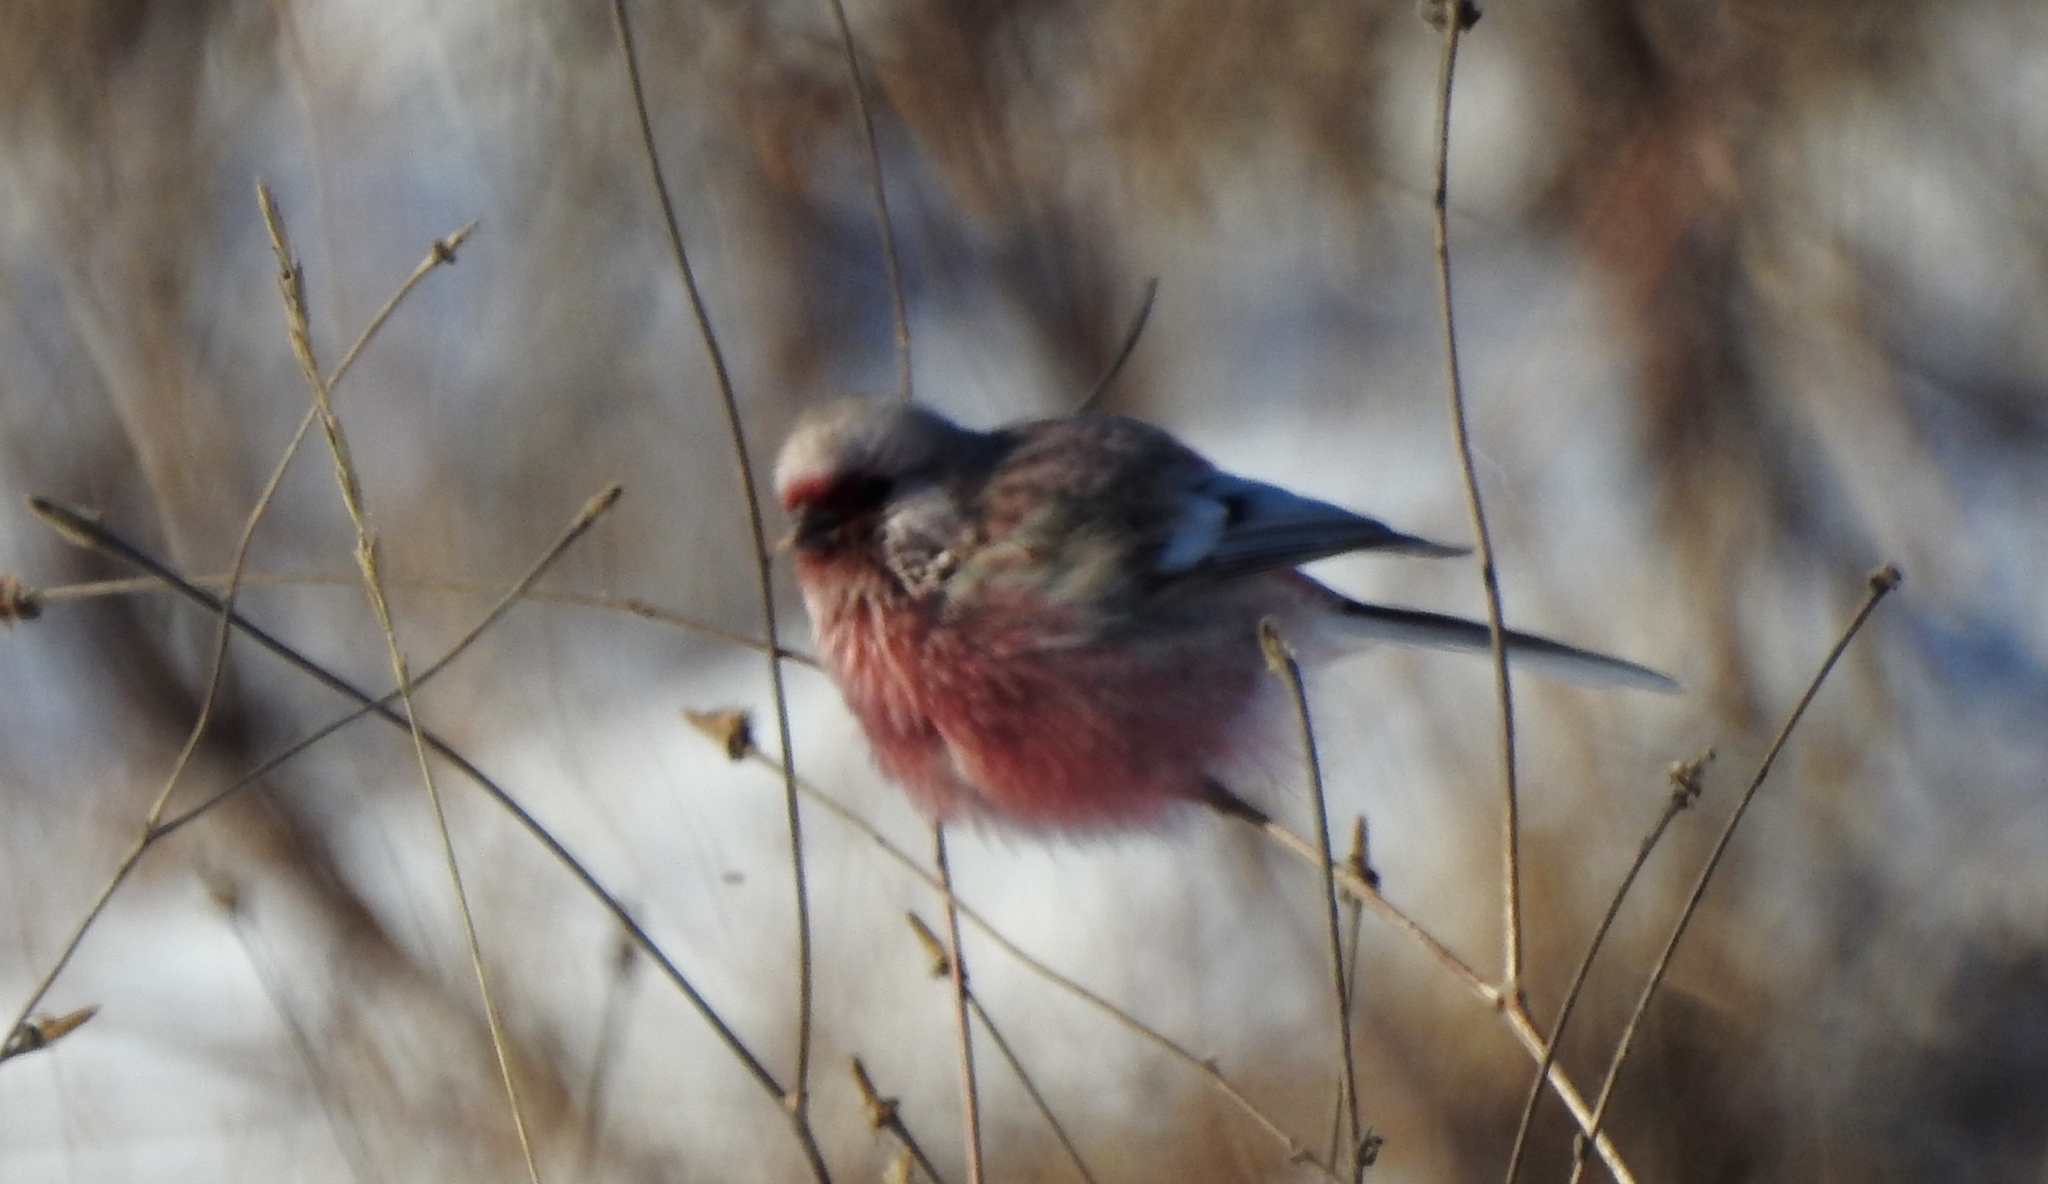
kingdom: Animalia
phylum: Chordata
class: Aves
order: Passeriformes
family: Fringillidae
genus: Carpodacus
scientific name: Carpodacus sibiricus
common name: Long-tailed rosefinch
